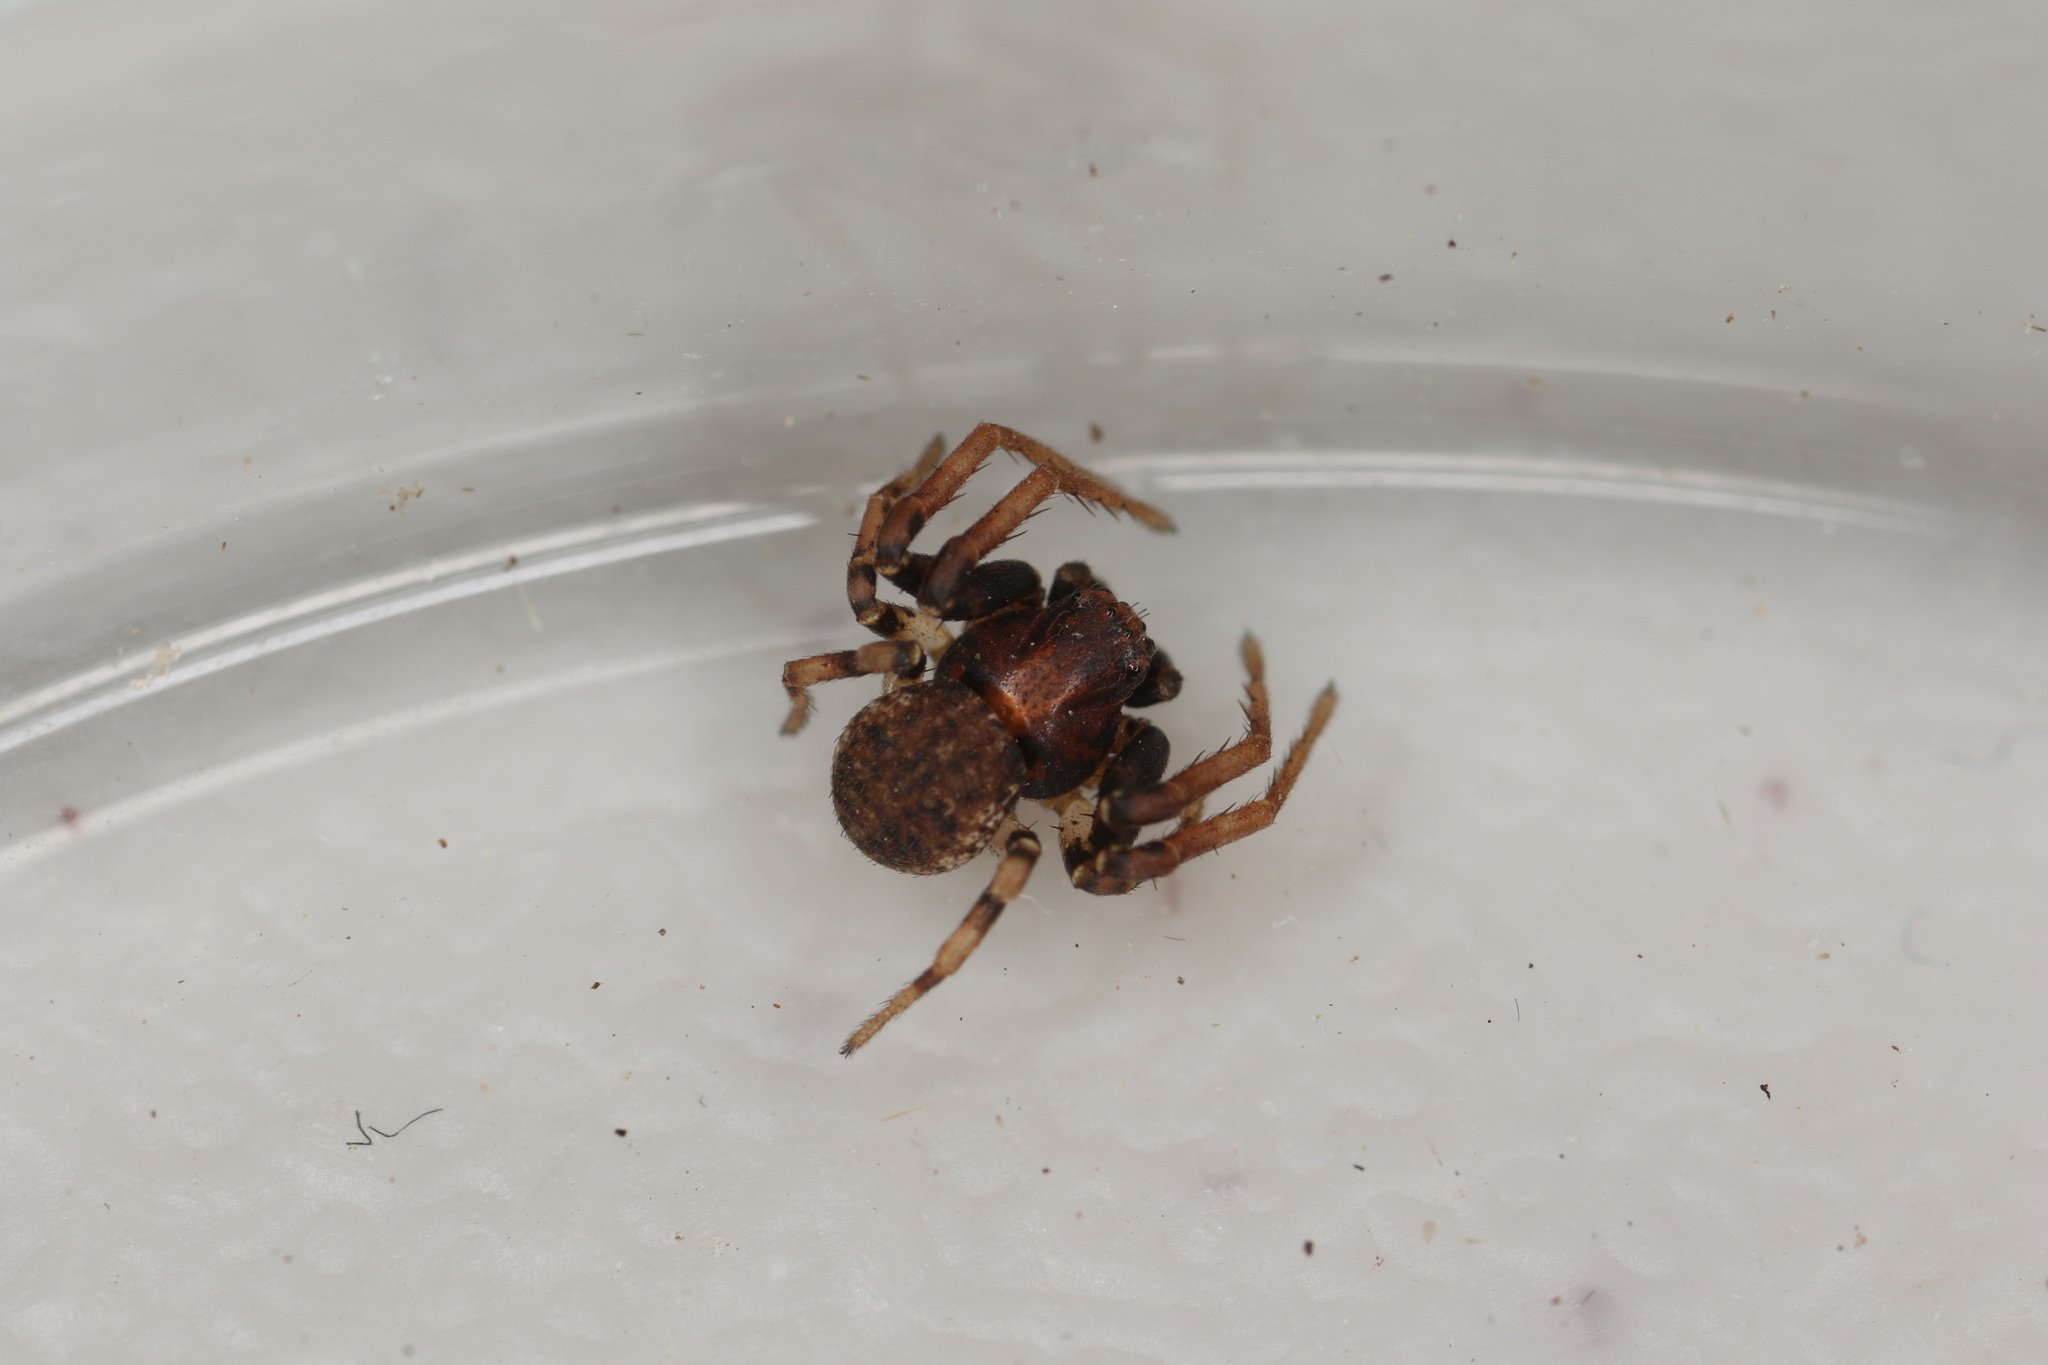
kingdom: Animalia
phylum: Arthropoda
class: Arachnida
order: Araneae
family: Thomisidae
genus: Ozyptila
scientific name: Ozyptila praticola
